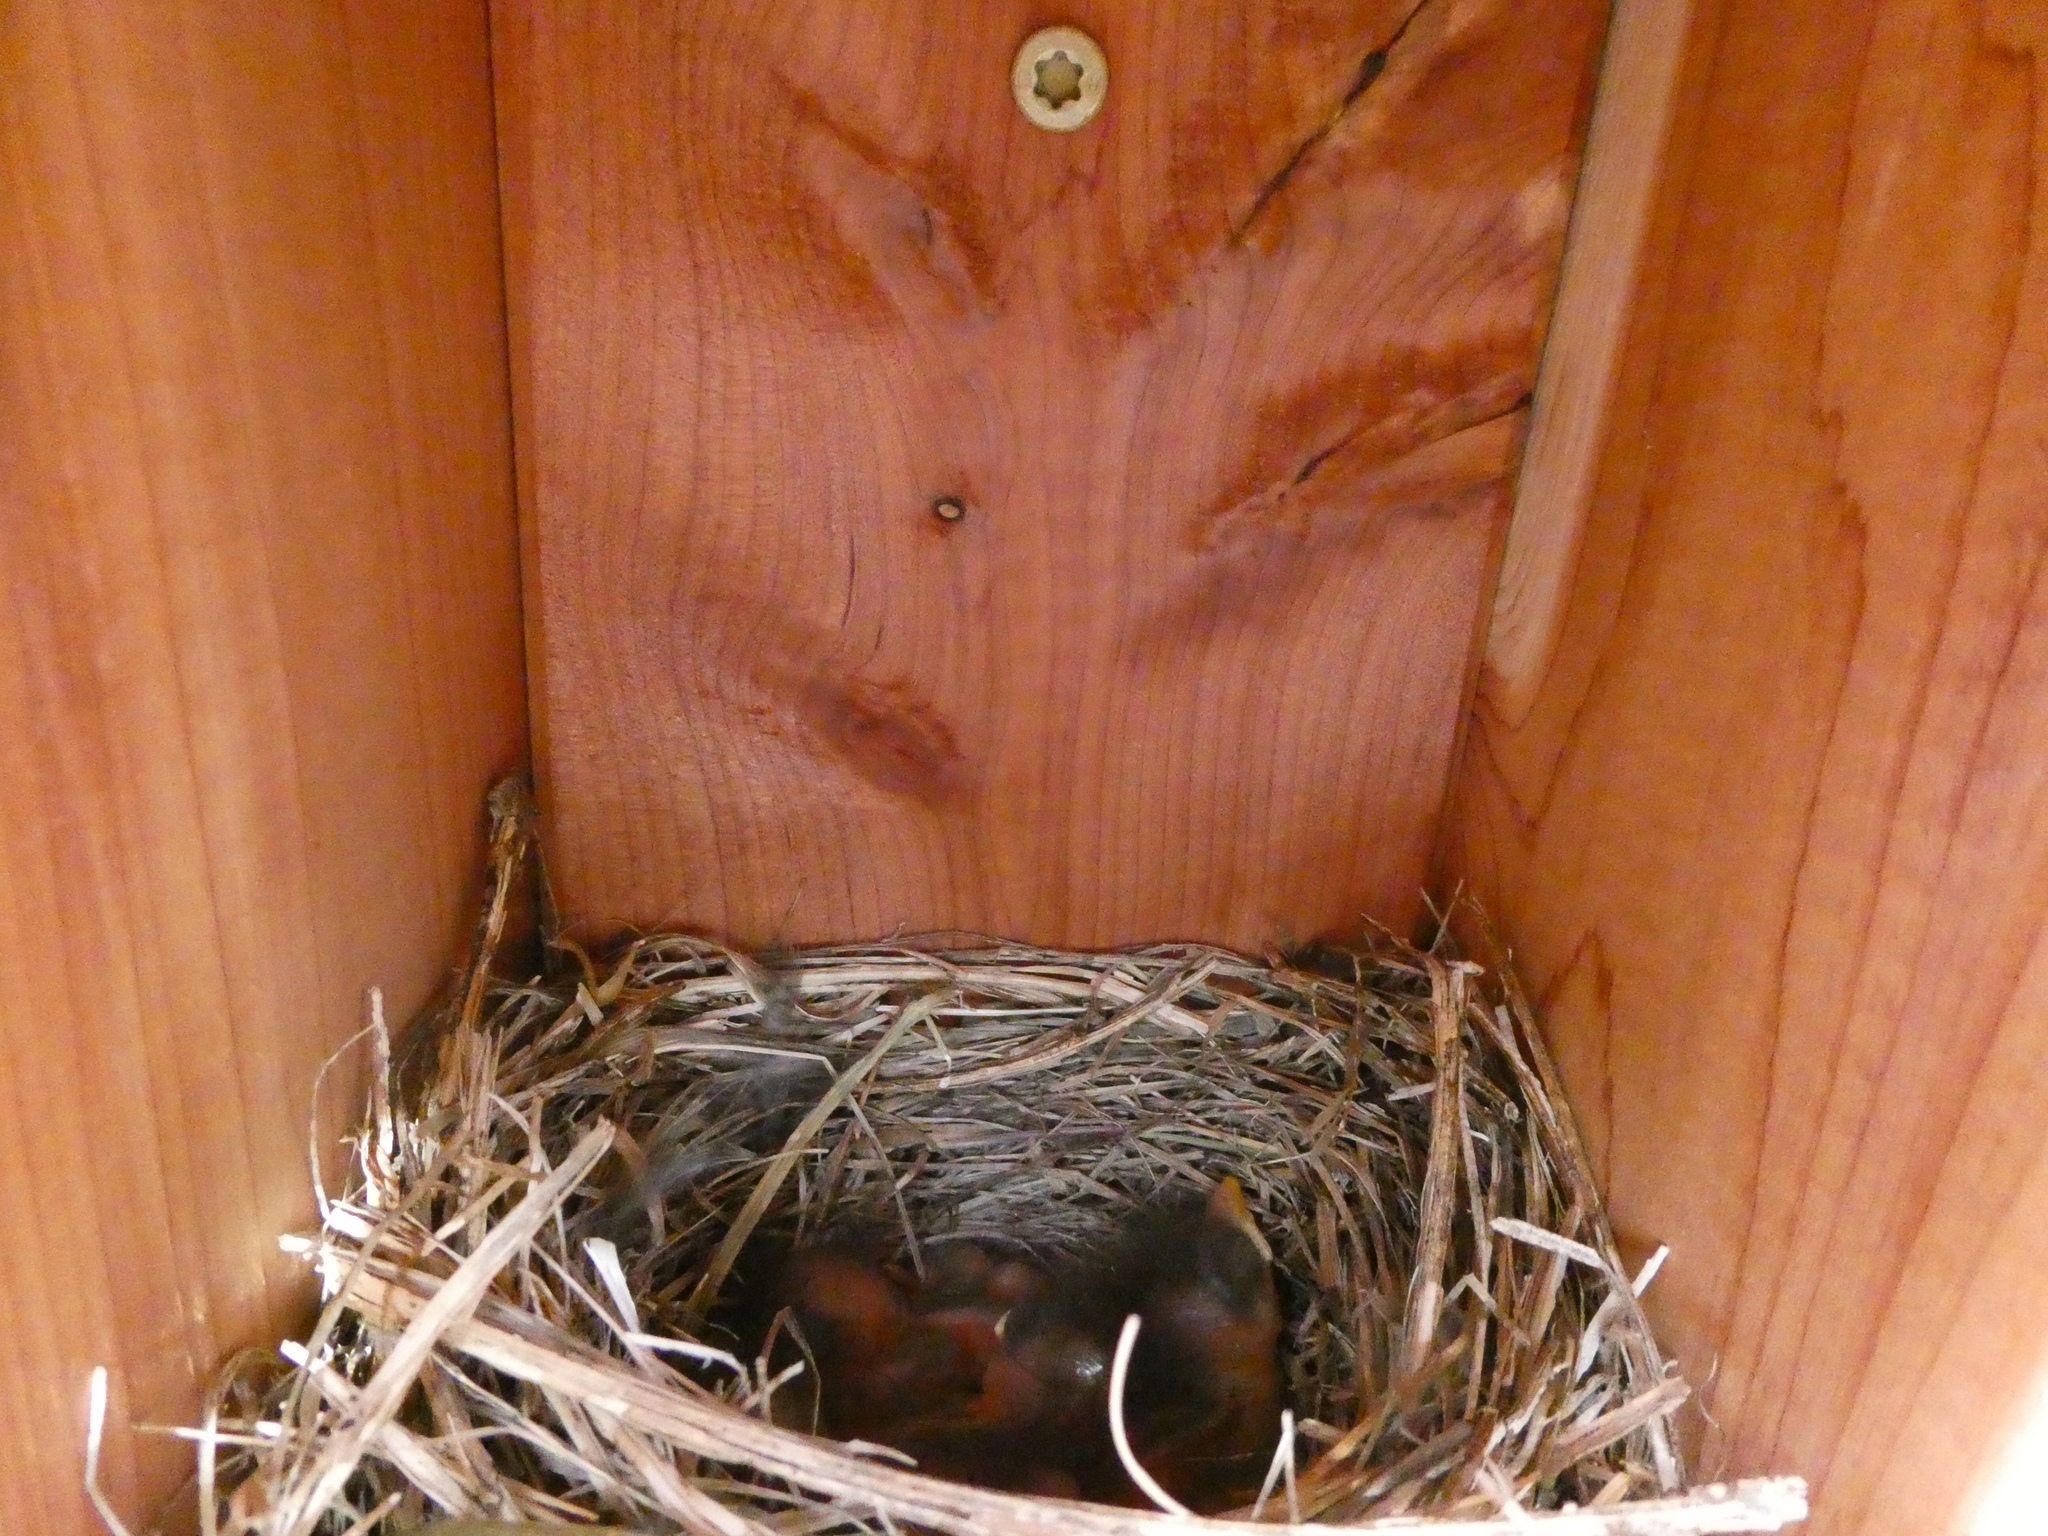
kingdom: Animalia
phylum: Chordata
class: Aves
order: Passeriformes
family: Turdidae
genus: Sialia
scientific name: Sialia sialis
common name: Eastern bluebird
